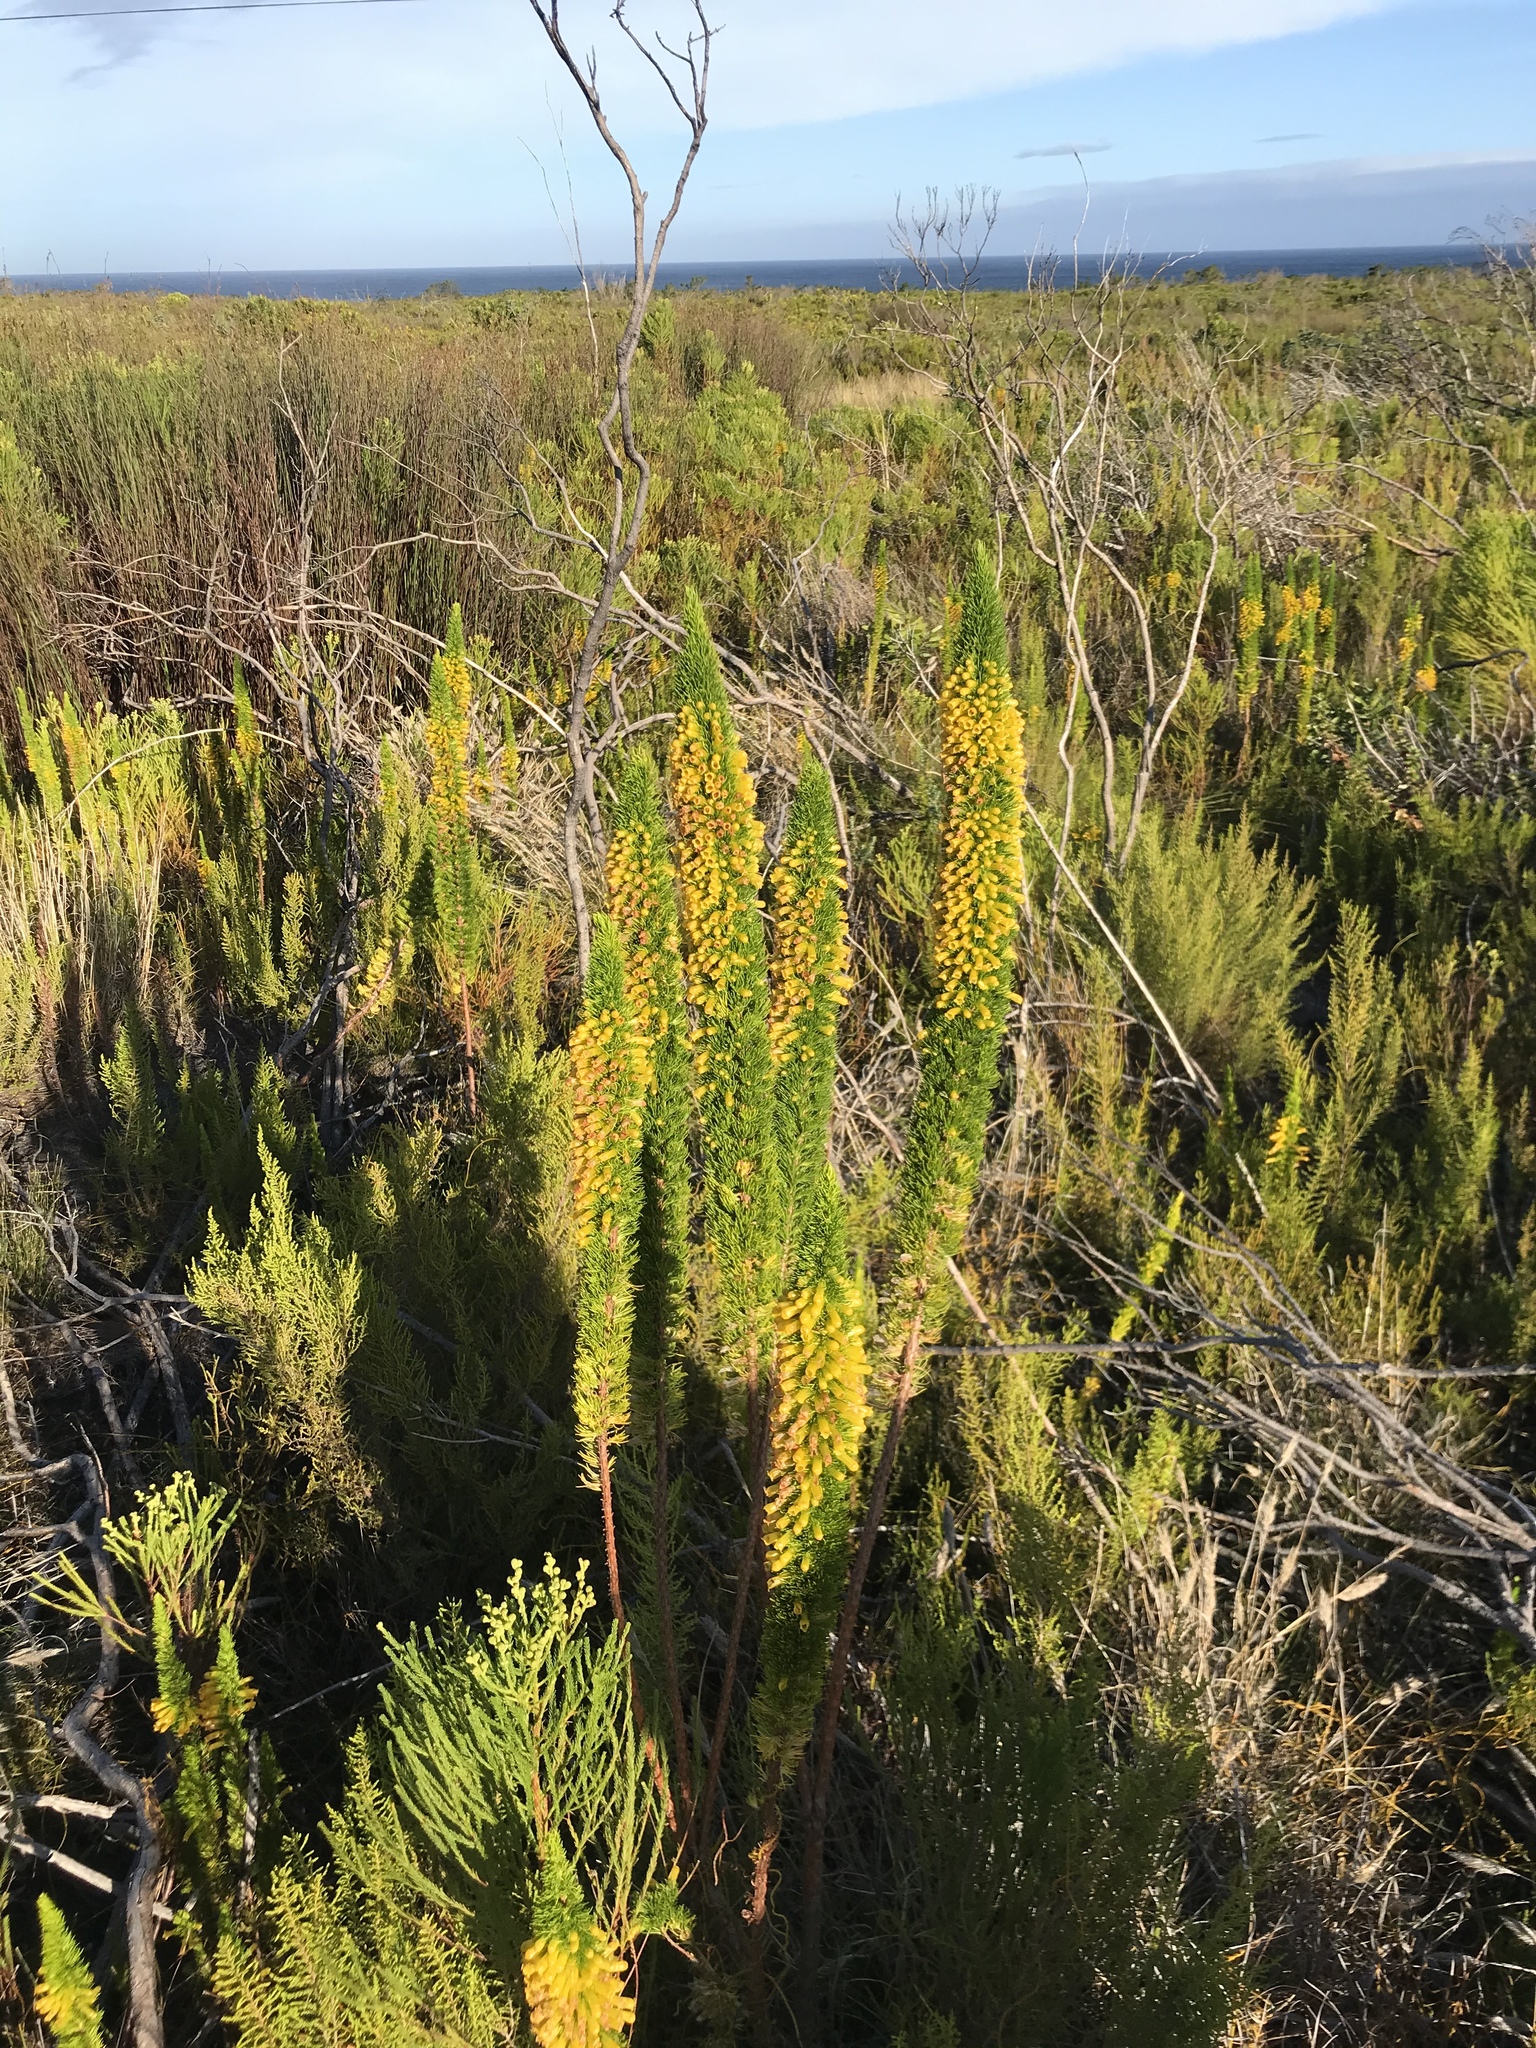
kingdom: Plantae
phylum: Tracheophyta
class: Magnoliopsida
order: Ericales
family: Ericaceae
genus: Erica
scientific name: Erica patersonia
